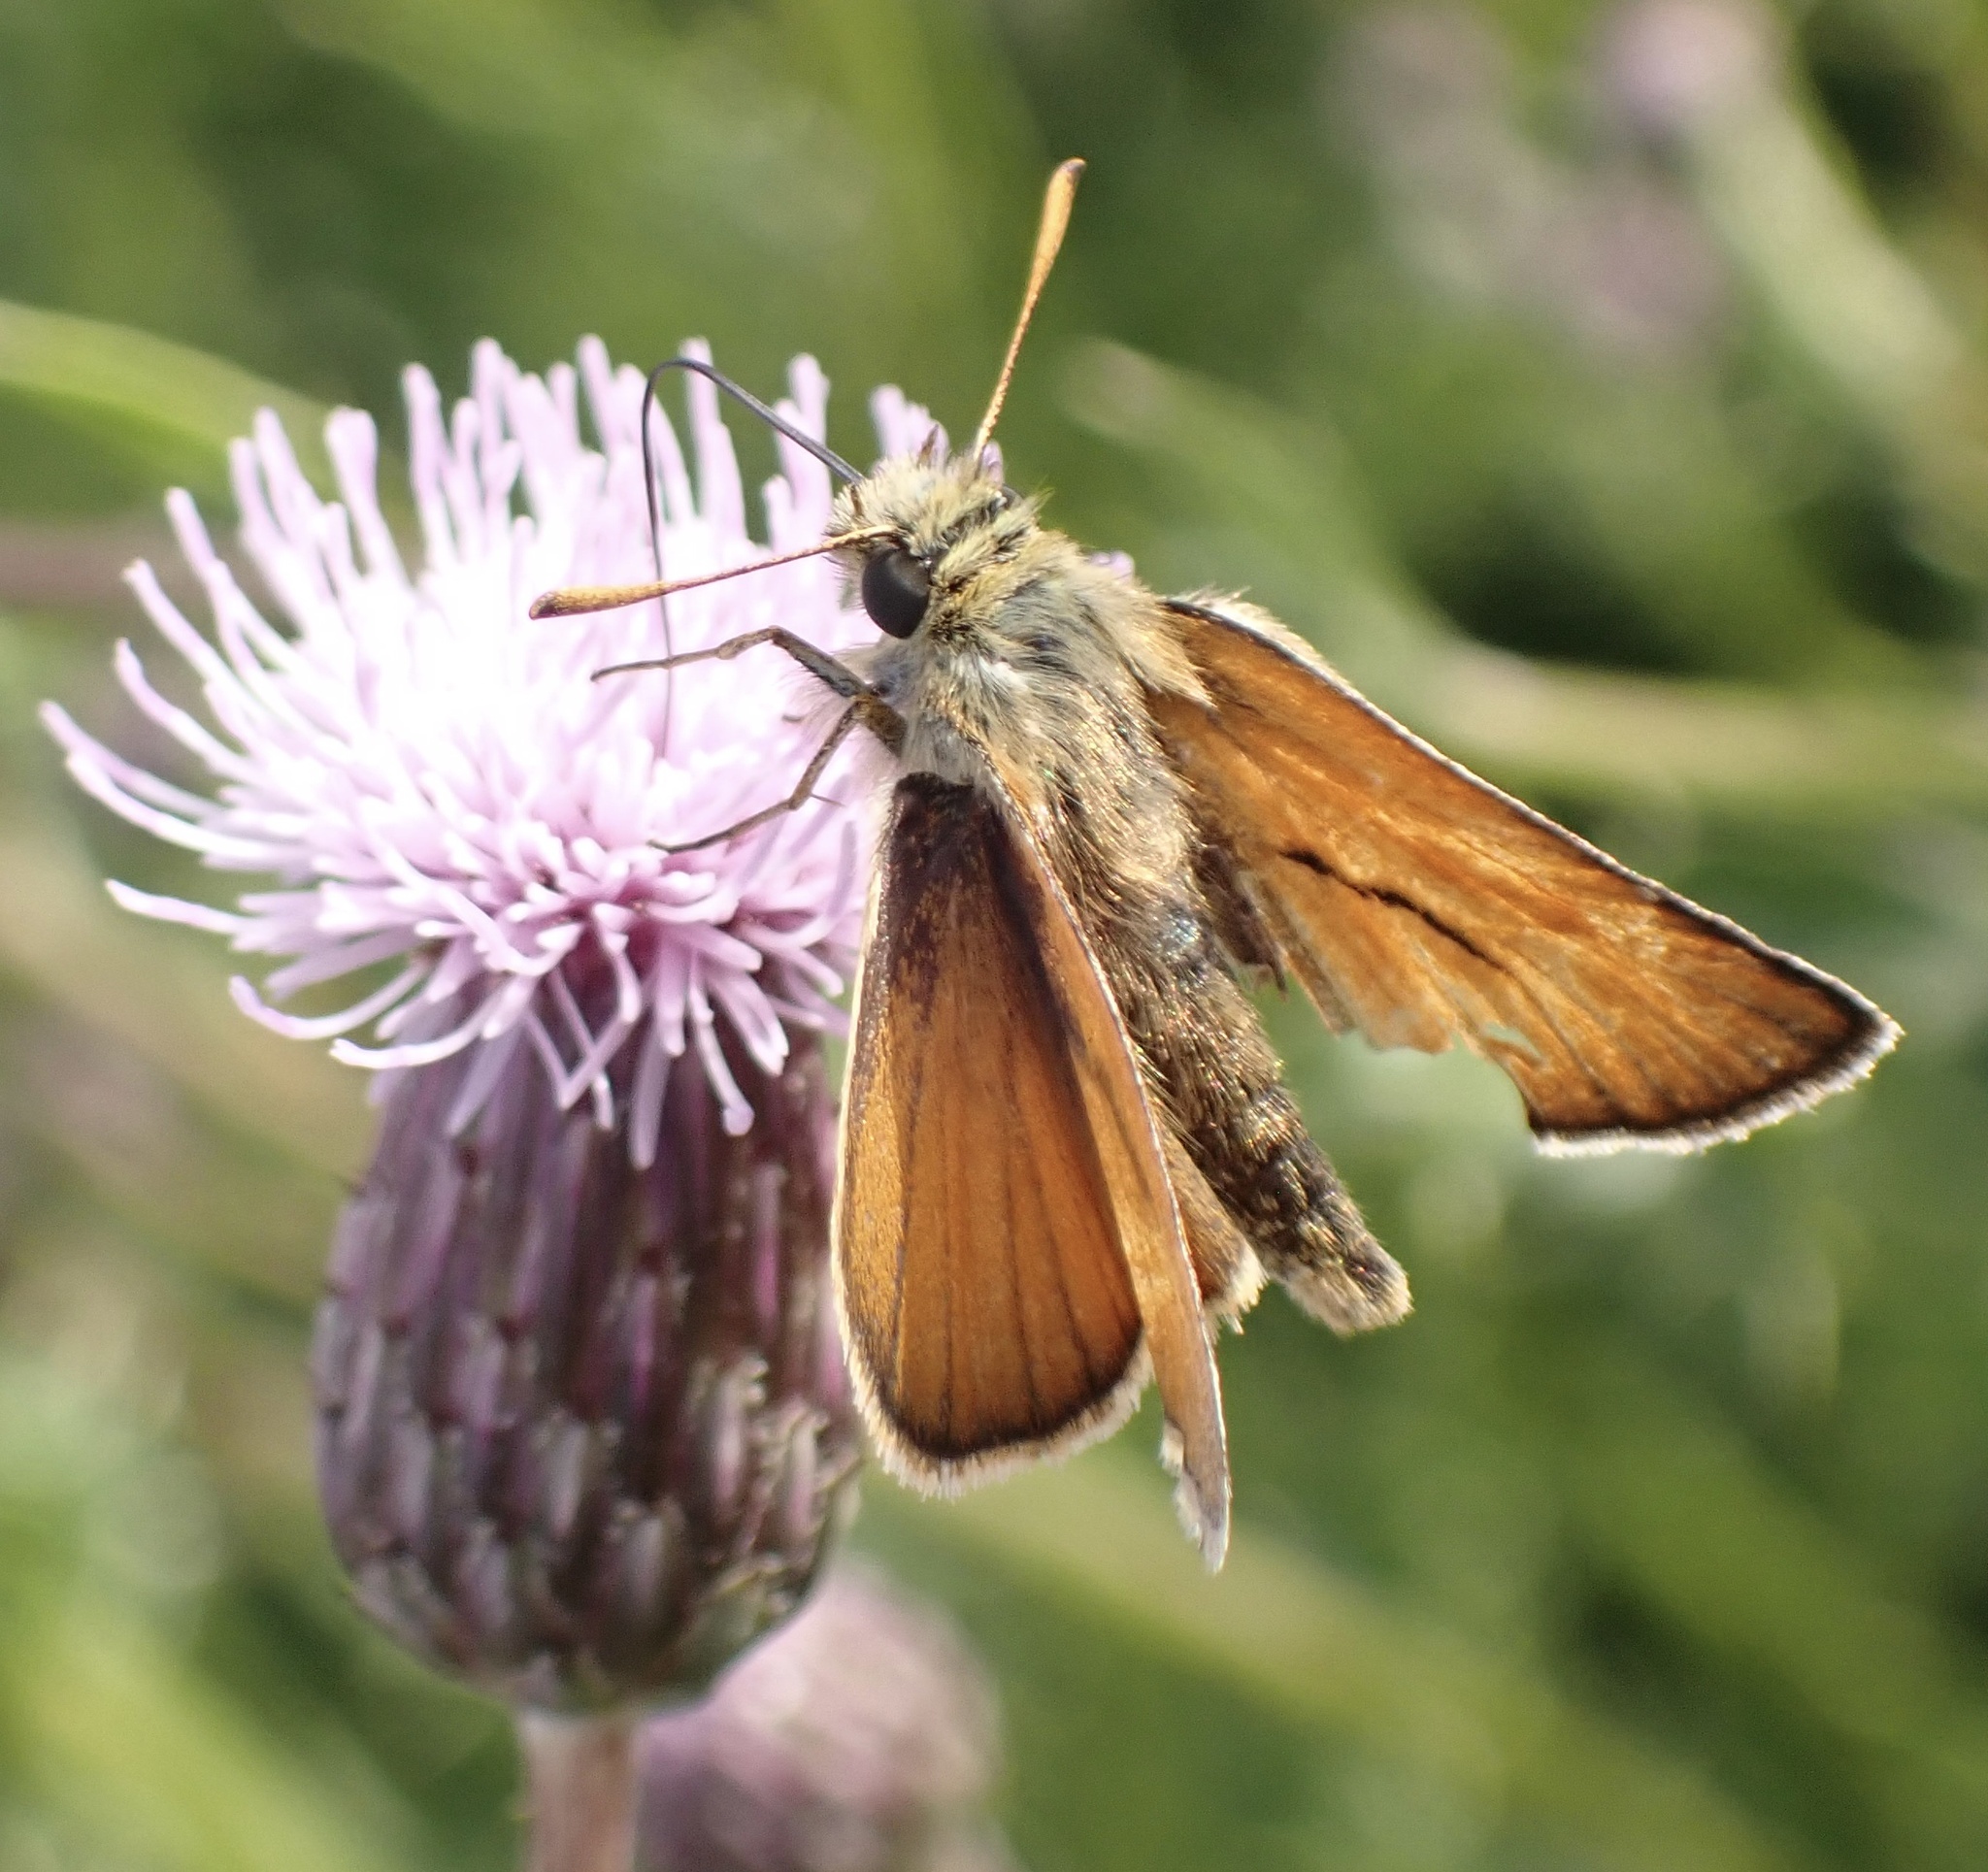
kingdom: Animalia
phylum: Arthropoda
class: Insecta
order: Lepidoptera
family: Hesperiidae
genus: Thymelicus
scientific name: Thymelicus sylvestris
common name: Small skipper
